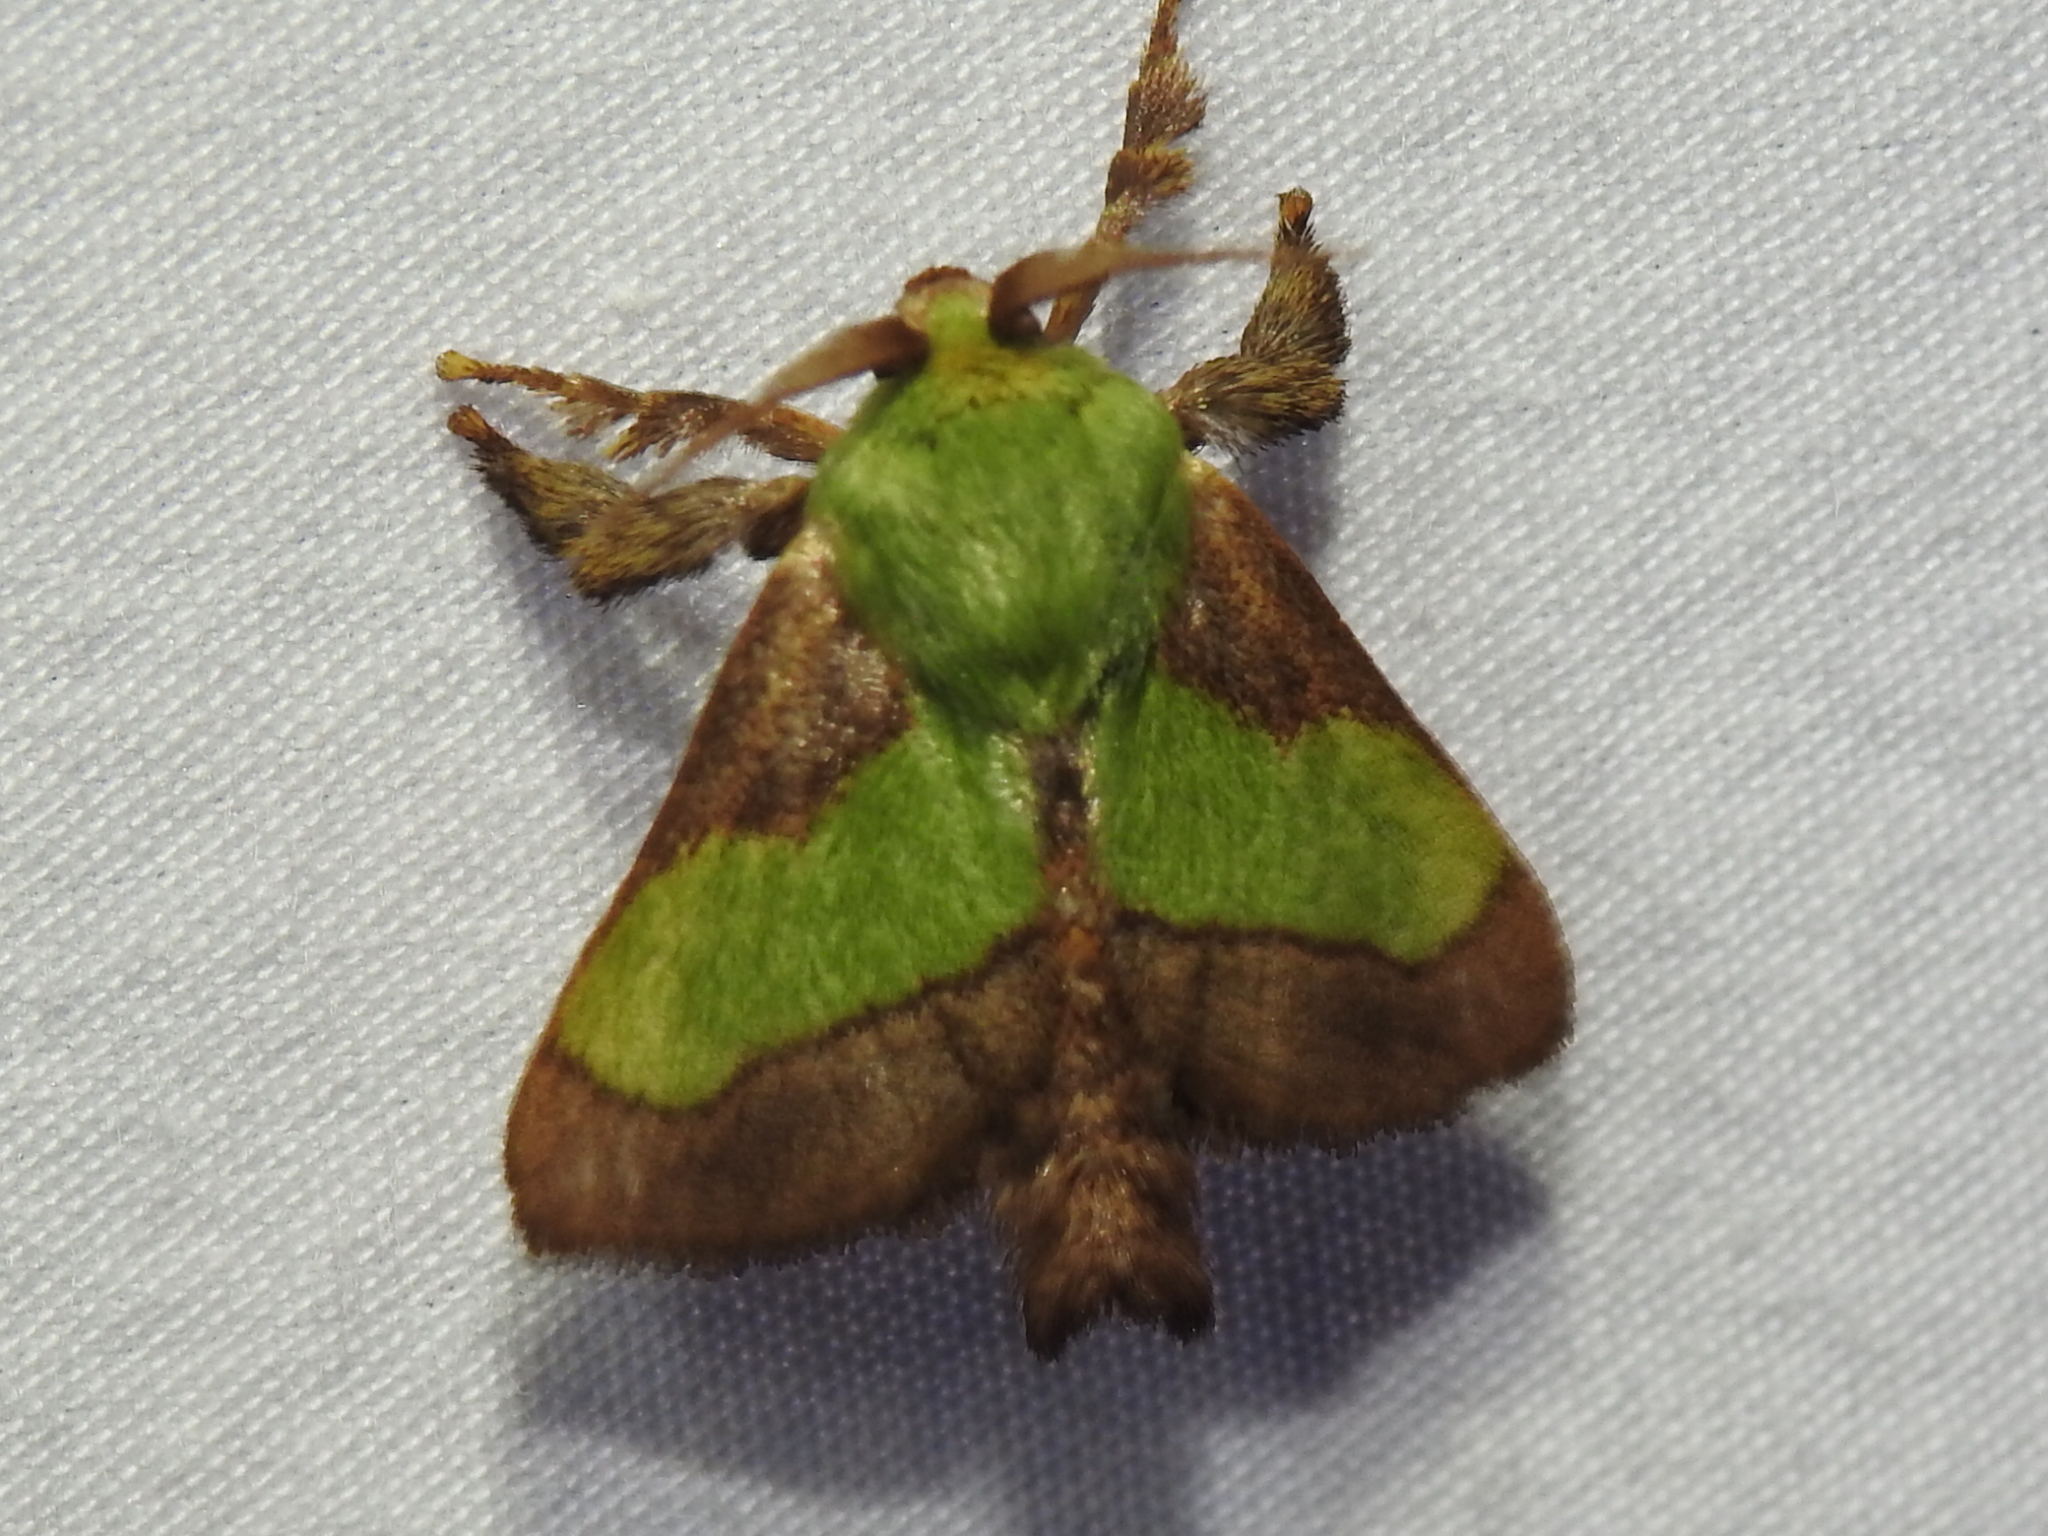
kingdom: Animalia
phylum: Arthropoda
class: Insecta
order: Lepidoptera
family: Limacodidae
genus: Parasa
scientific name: Parasa chloris
